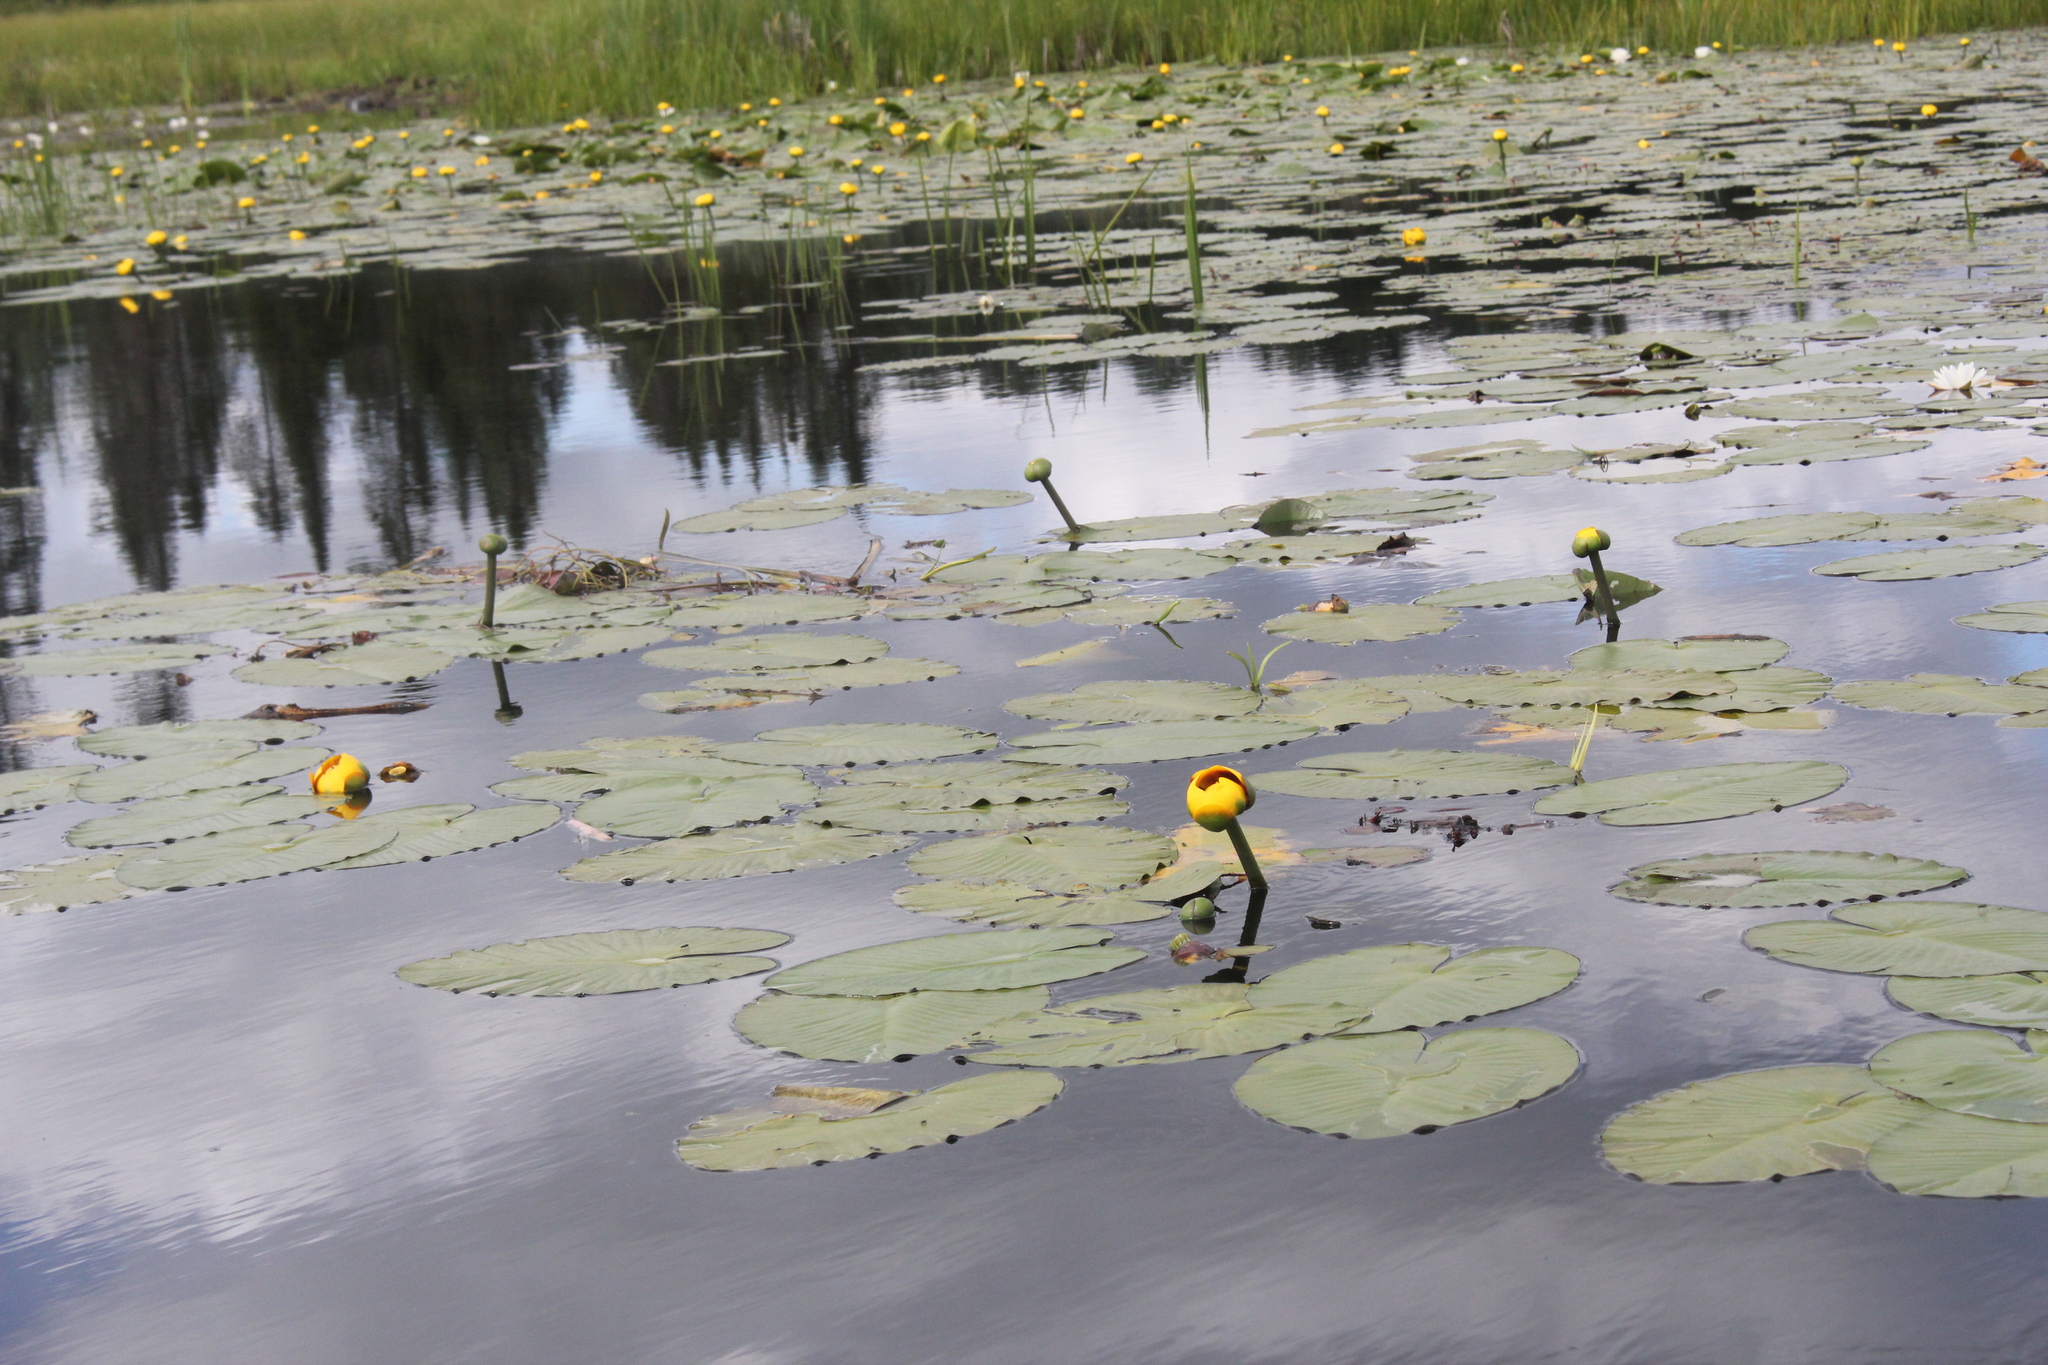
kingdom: Plantae
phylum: Tracheophyta
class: Magnoliopsida
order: Nymphaeales
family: Nymphaeaceae
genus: Nuphar
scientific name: Nuphar variegata
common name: Beaver-root
